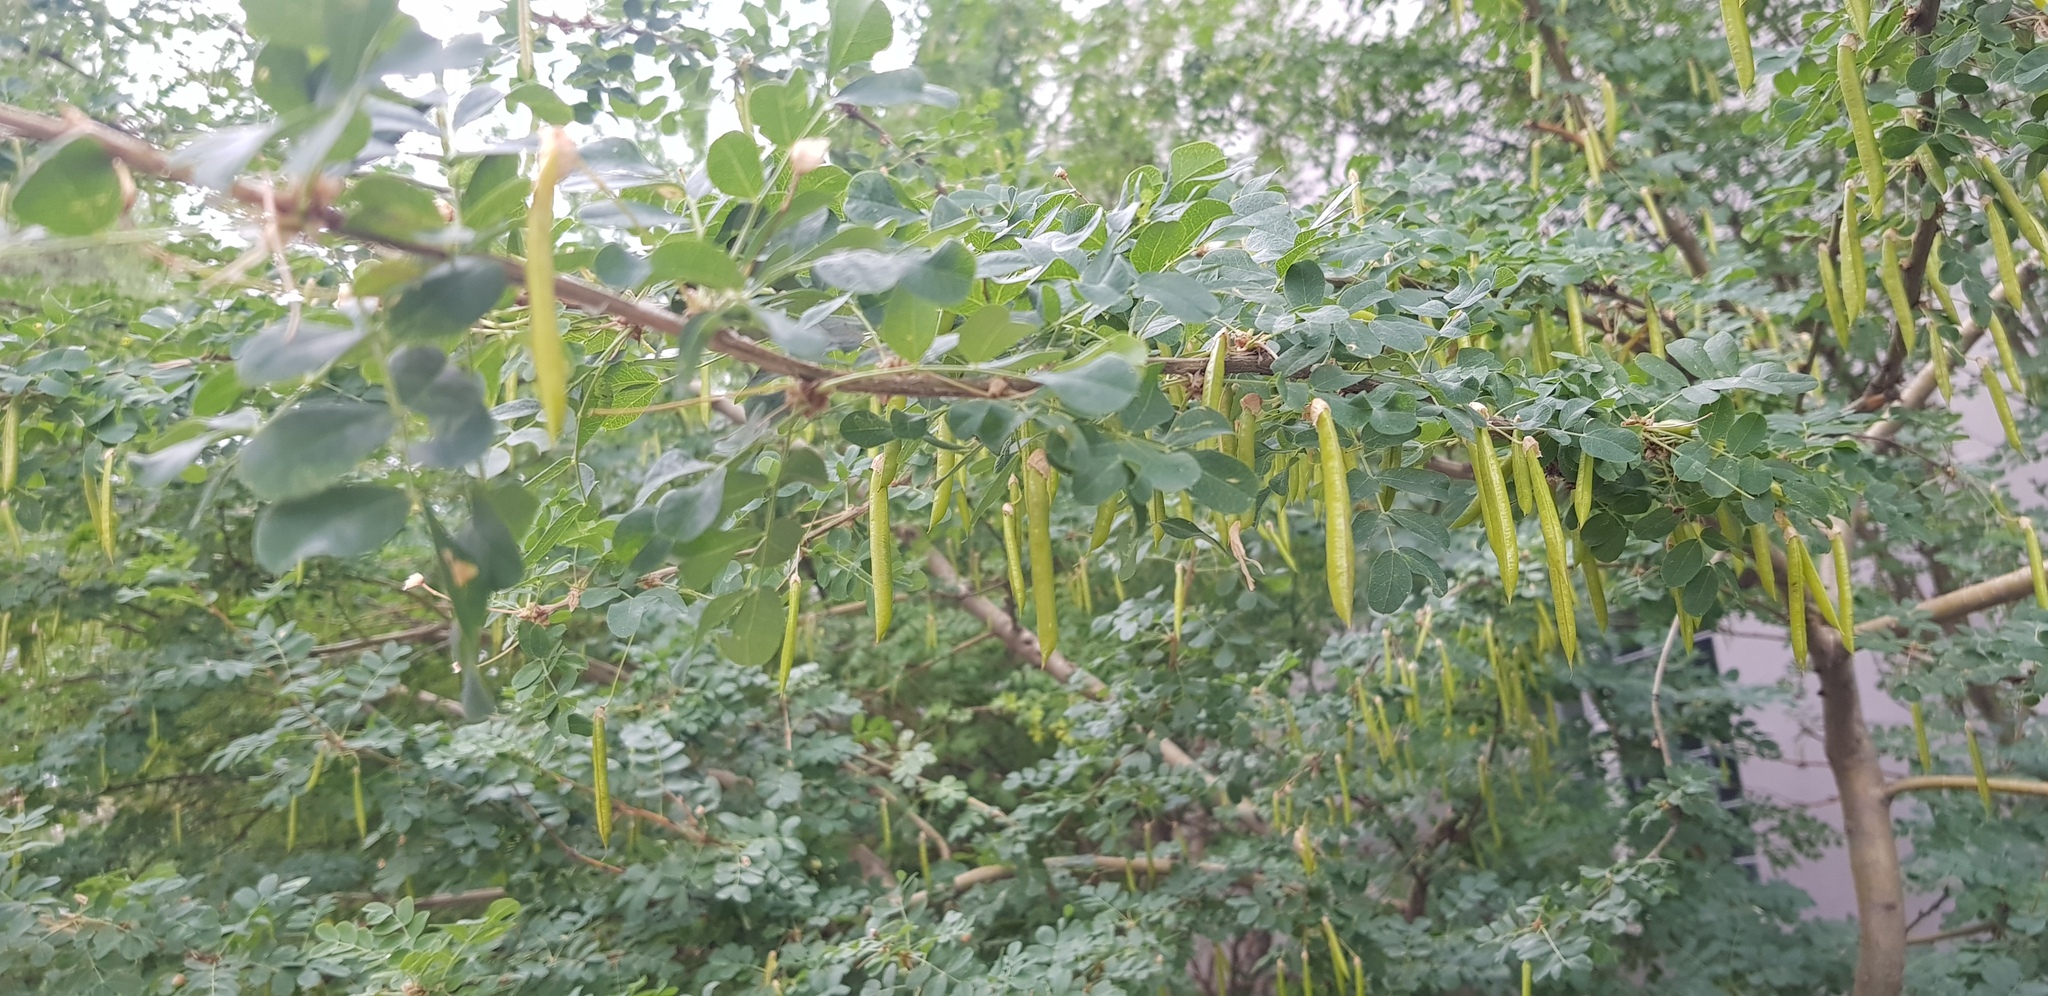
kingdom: Plantae
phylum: Tracheophyta
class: Magnoliopsida
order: Fabales
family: Fabaceae
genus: Caragana
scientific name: Caragana arborescens
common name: Siberian peashrub
